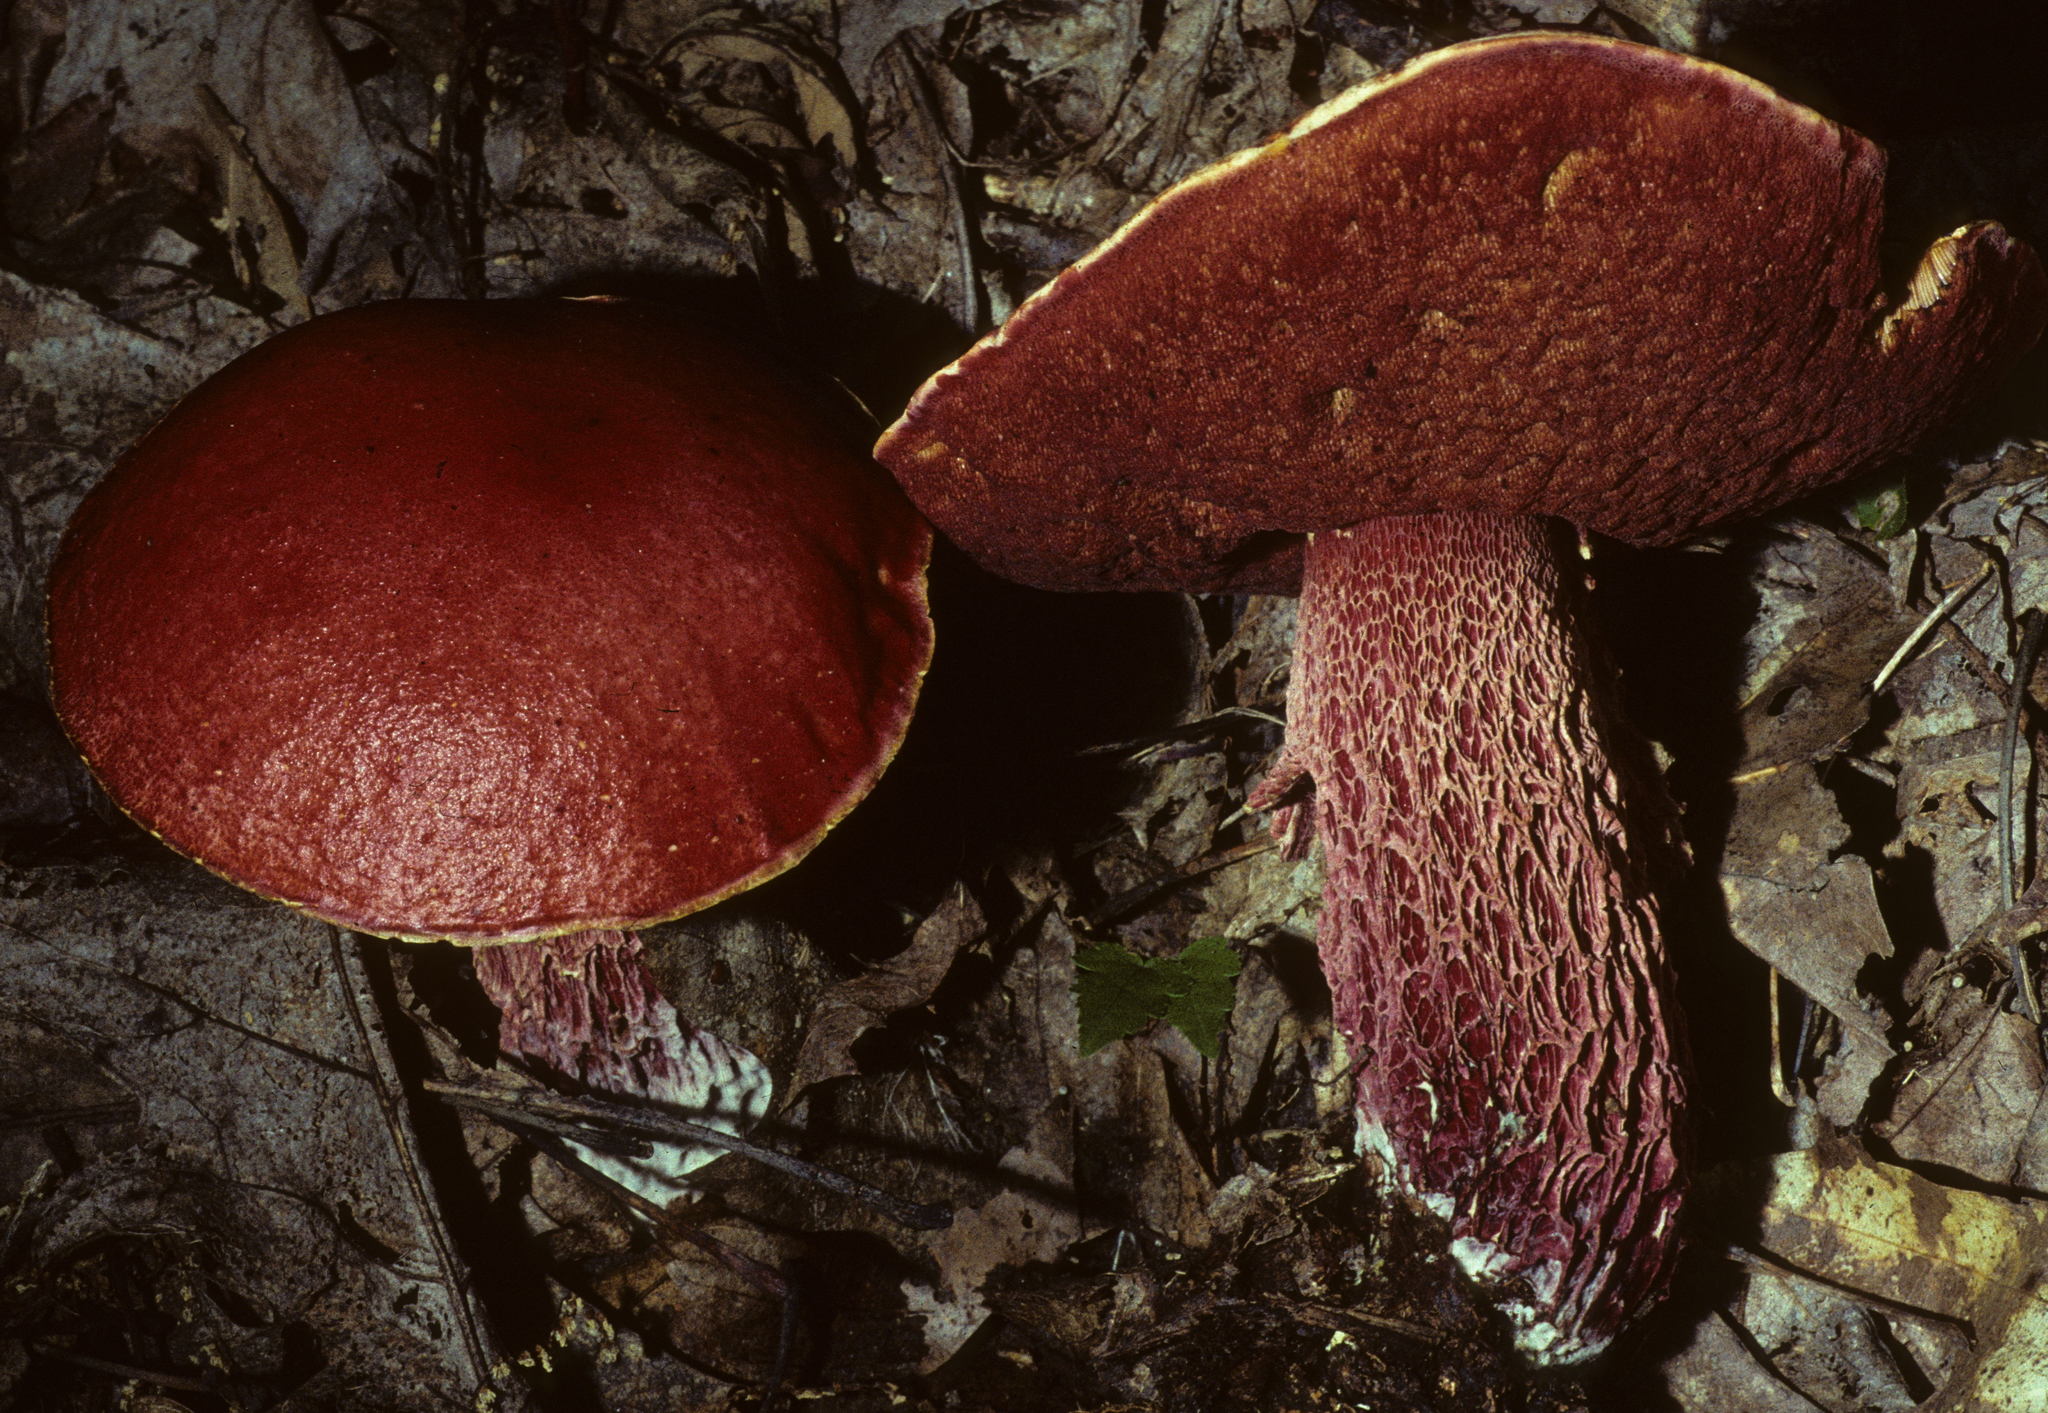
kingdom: Fungi
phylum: Basidiomycota
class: Agaricomycetes
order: Boletales
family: Boletaceae
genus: Butyriboletus
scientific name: Butyriboletus frostii
